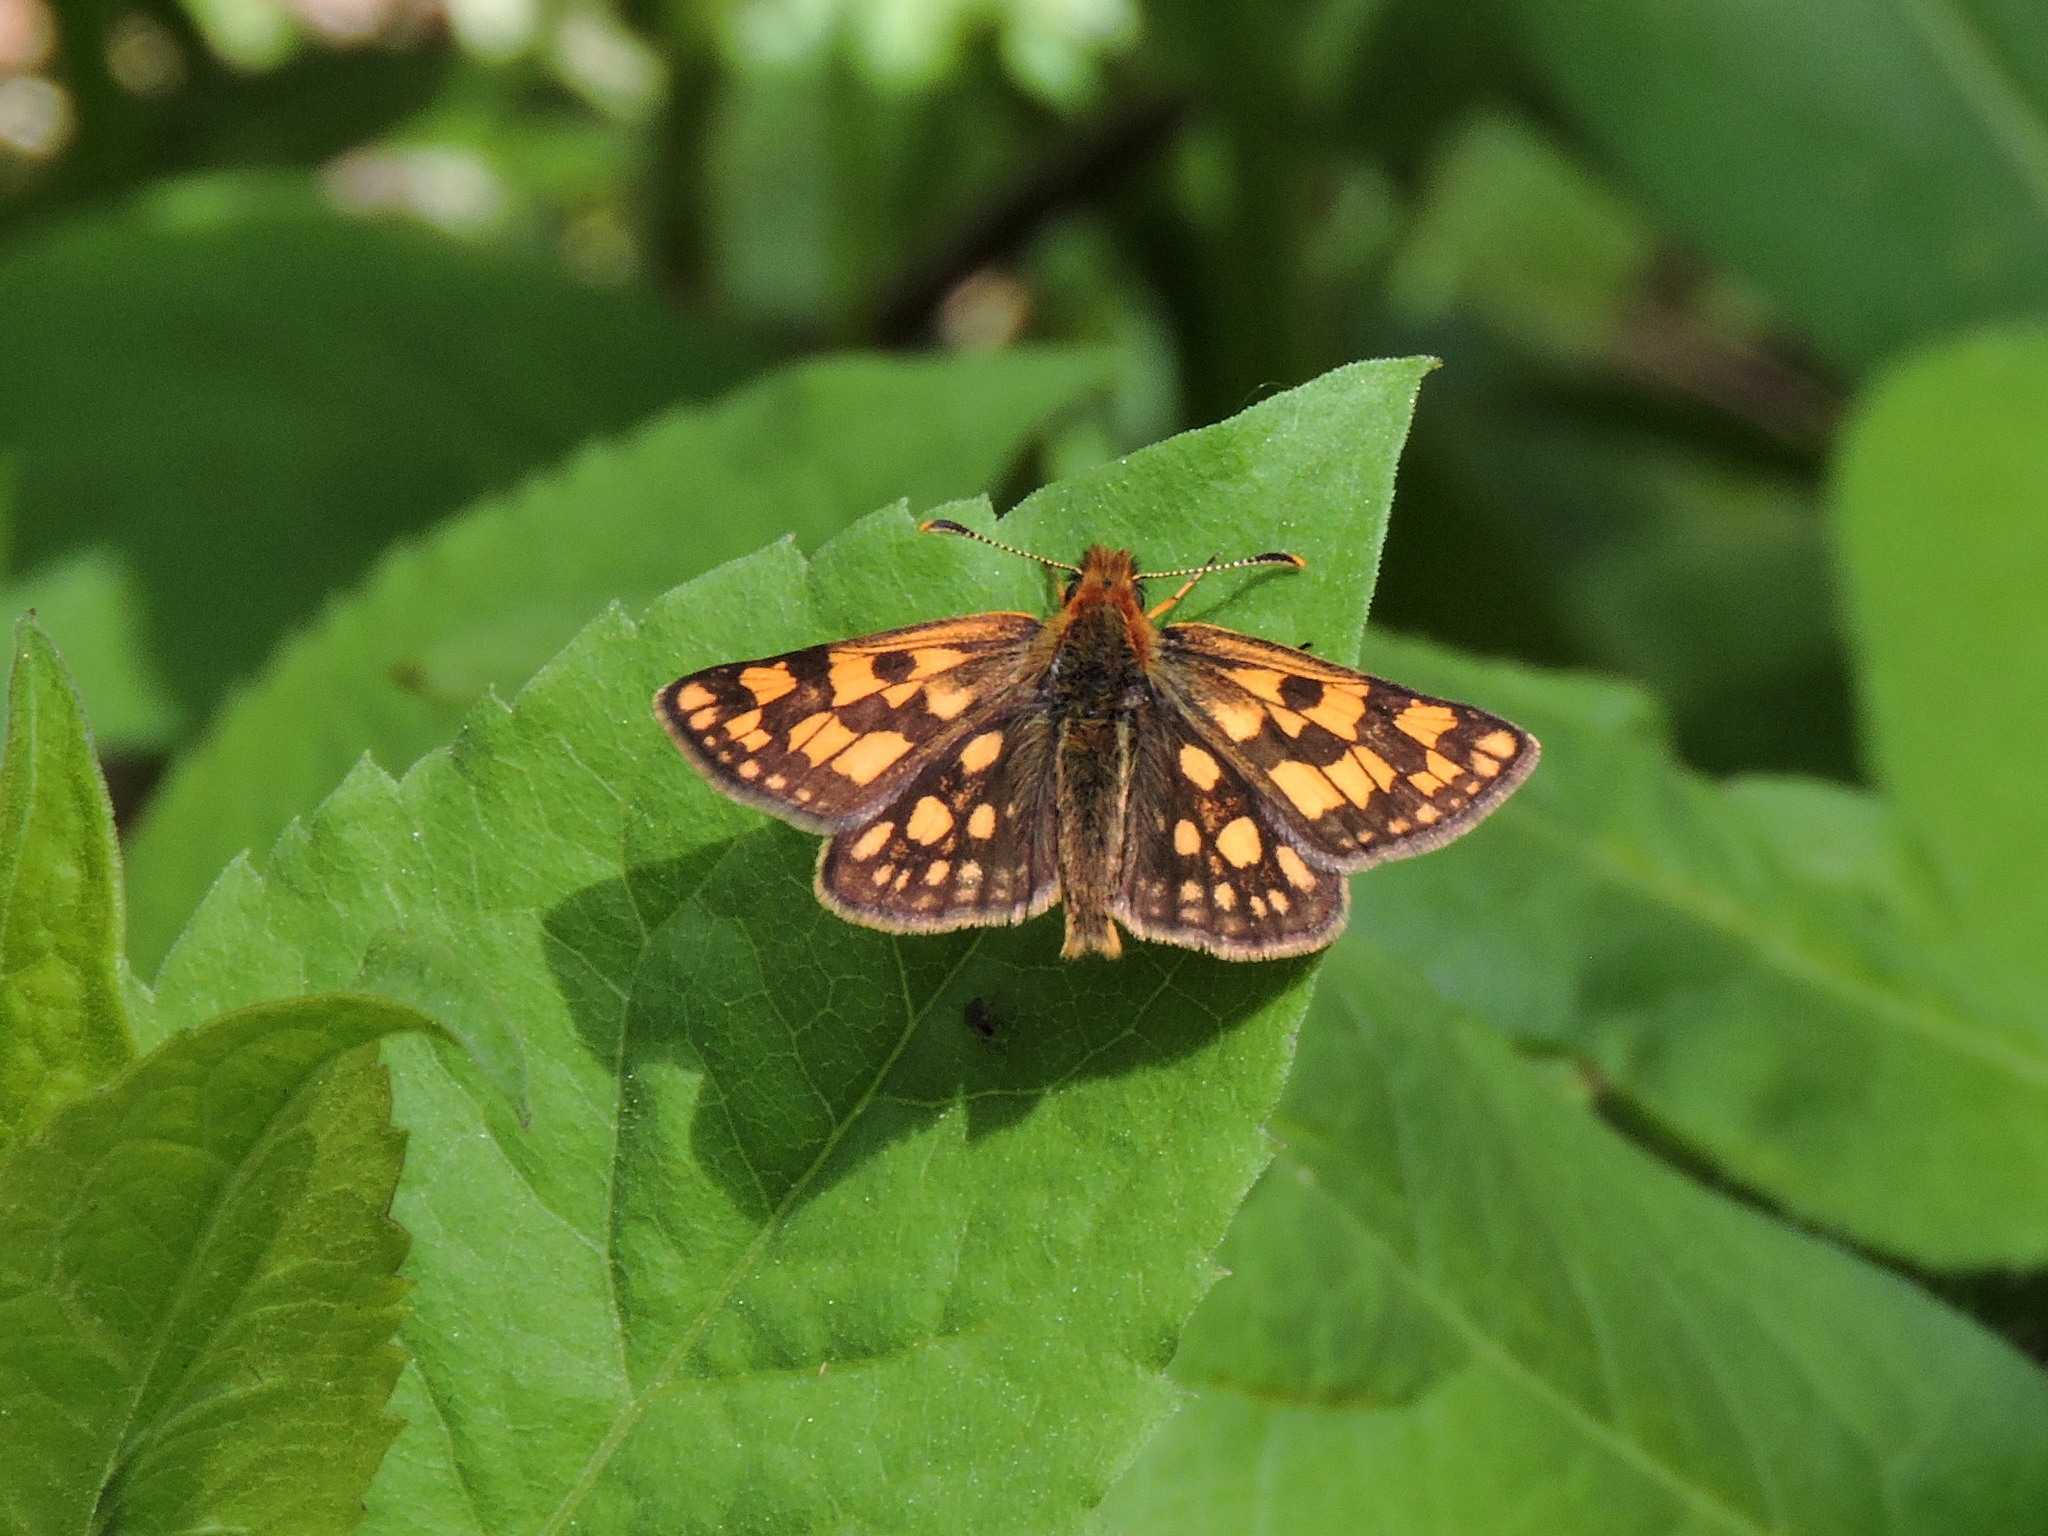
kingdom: Animalia
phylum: Arthropoda
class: Insecta
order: Lepidoptera
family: Hesperiidae
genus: Carterocephalus
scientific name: Carterocephalus skada
